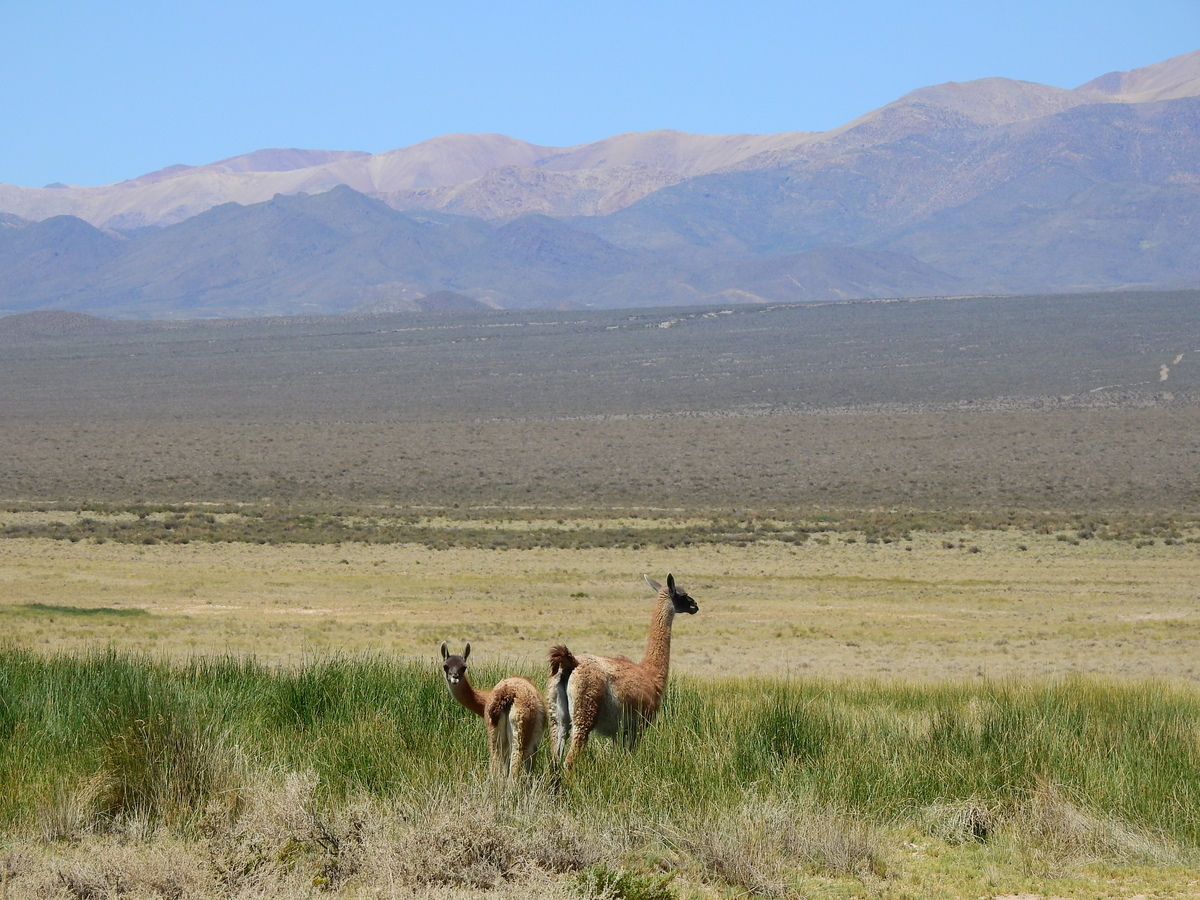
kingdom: Animalia
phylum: Chordata
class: Mammalia
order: Artiodactyla
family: Camelidae
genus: Lama
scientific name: Lama glama
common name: Llama
